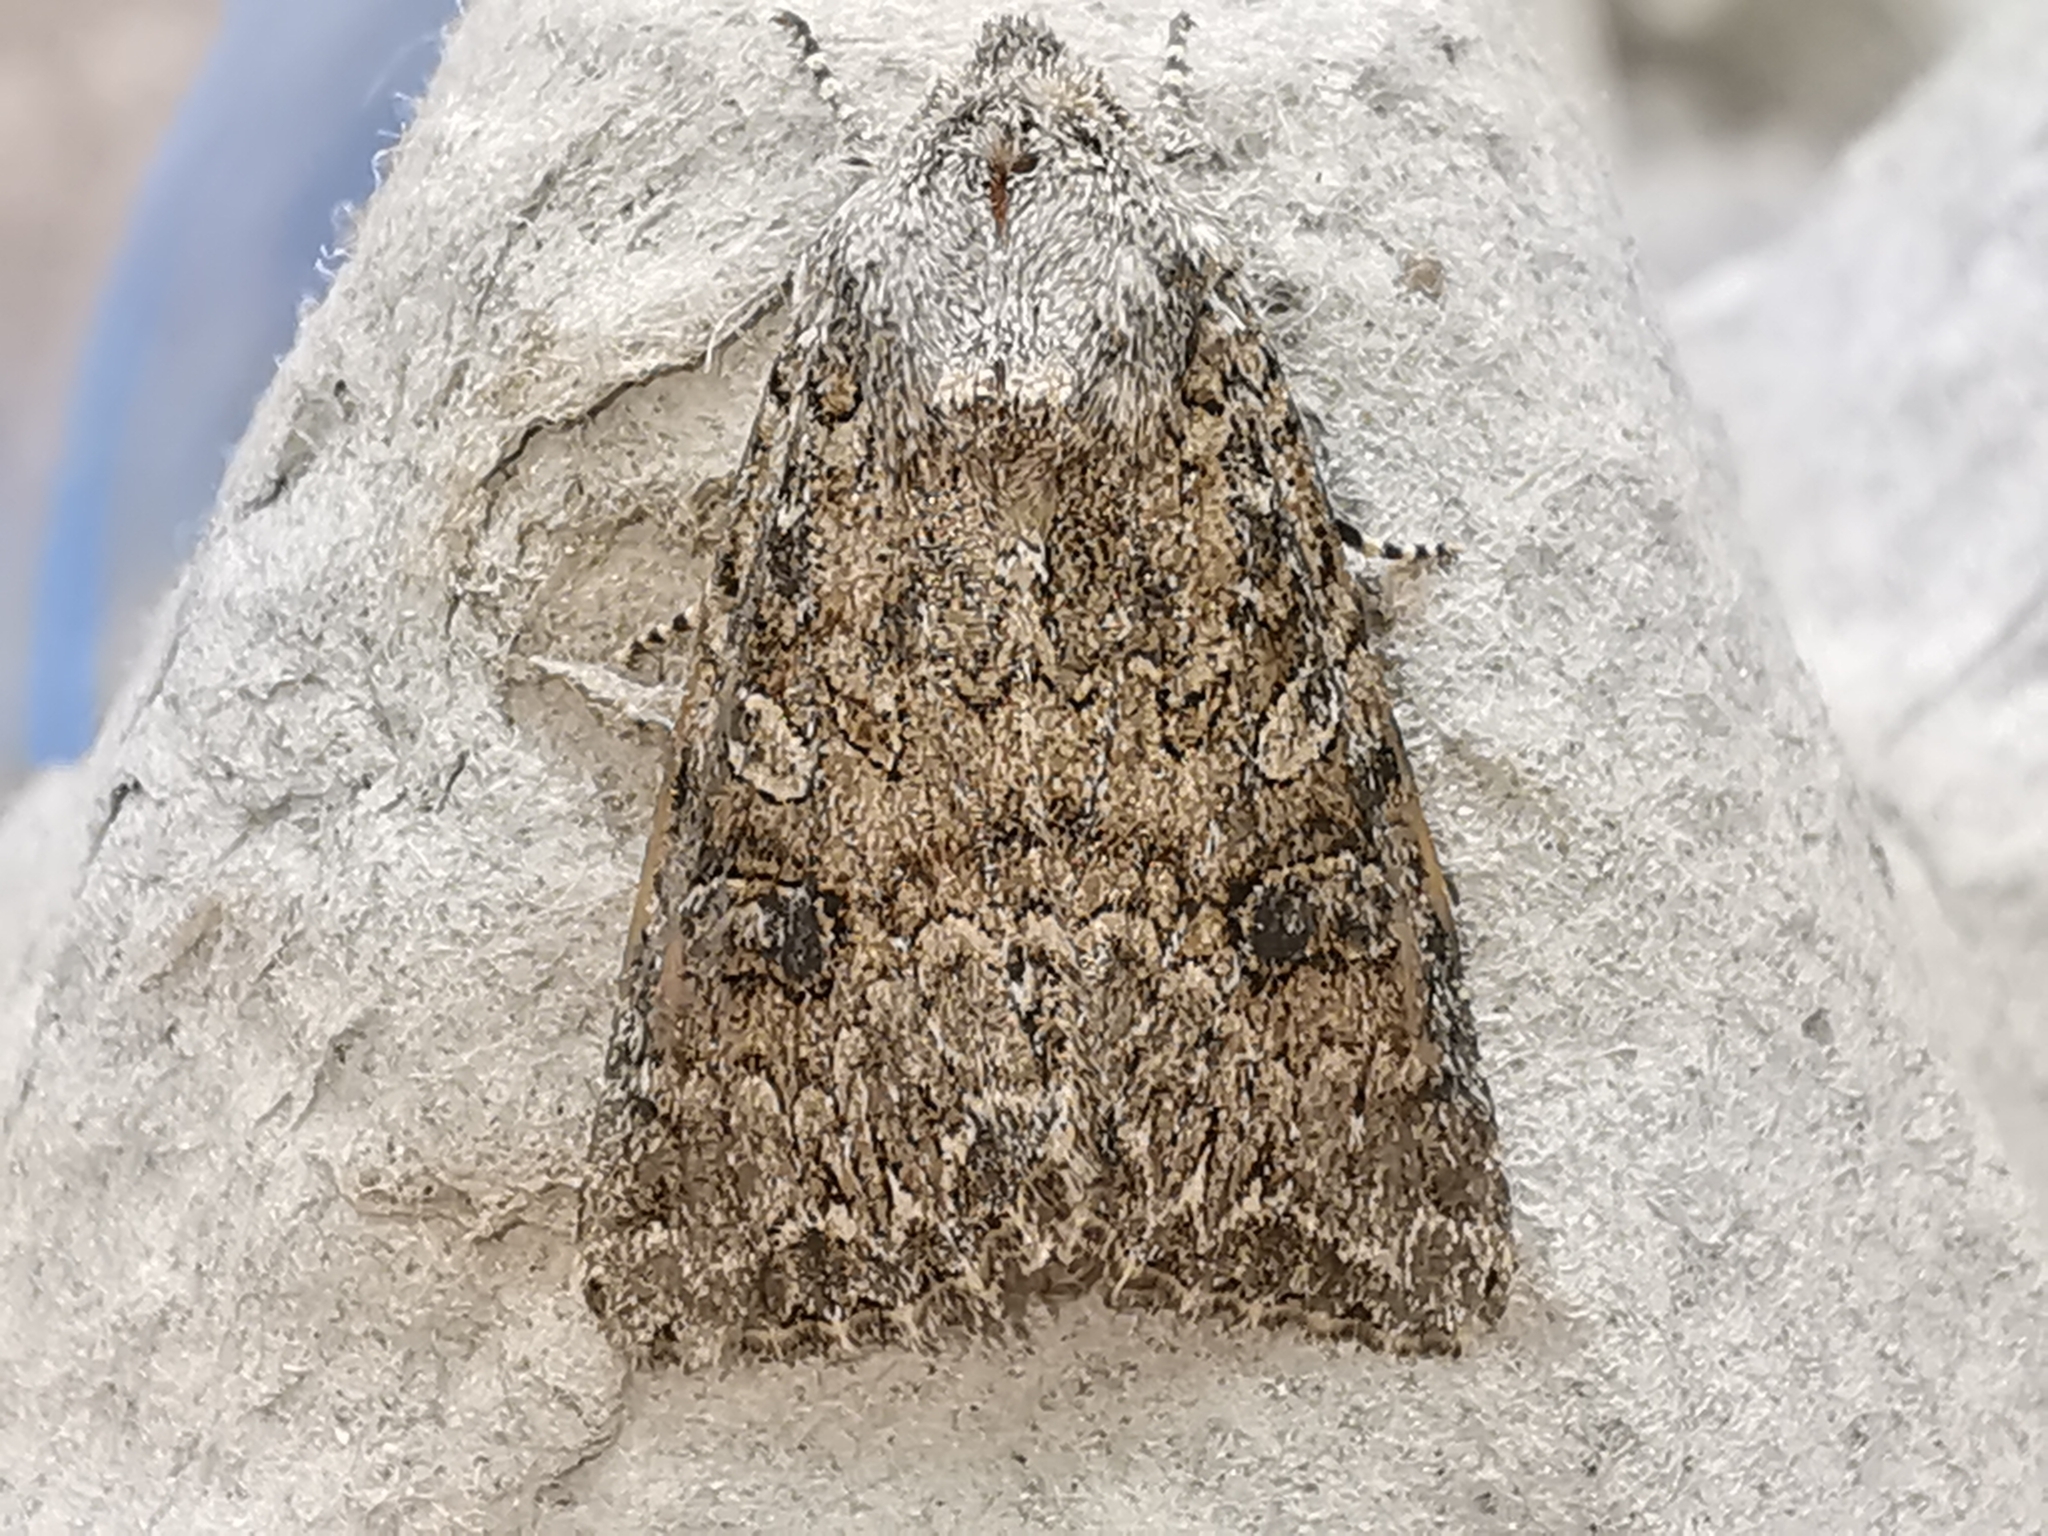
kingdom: Animalia
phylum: Arthropoda
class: Insecta
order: Lepidoptera
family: Noctuidae
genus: Anarta
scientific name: Anarta trifolii
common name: Clover cutworm moth
